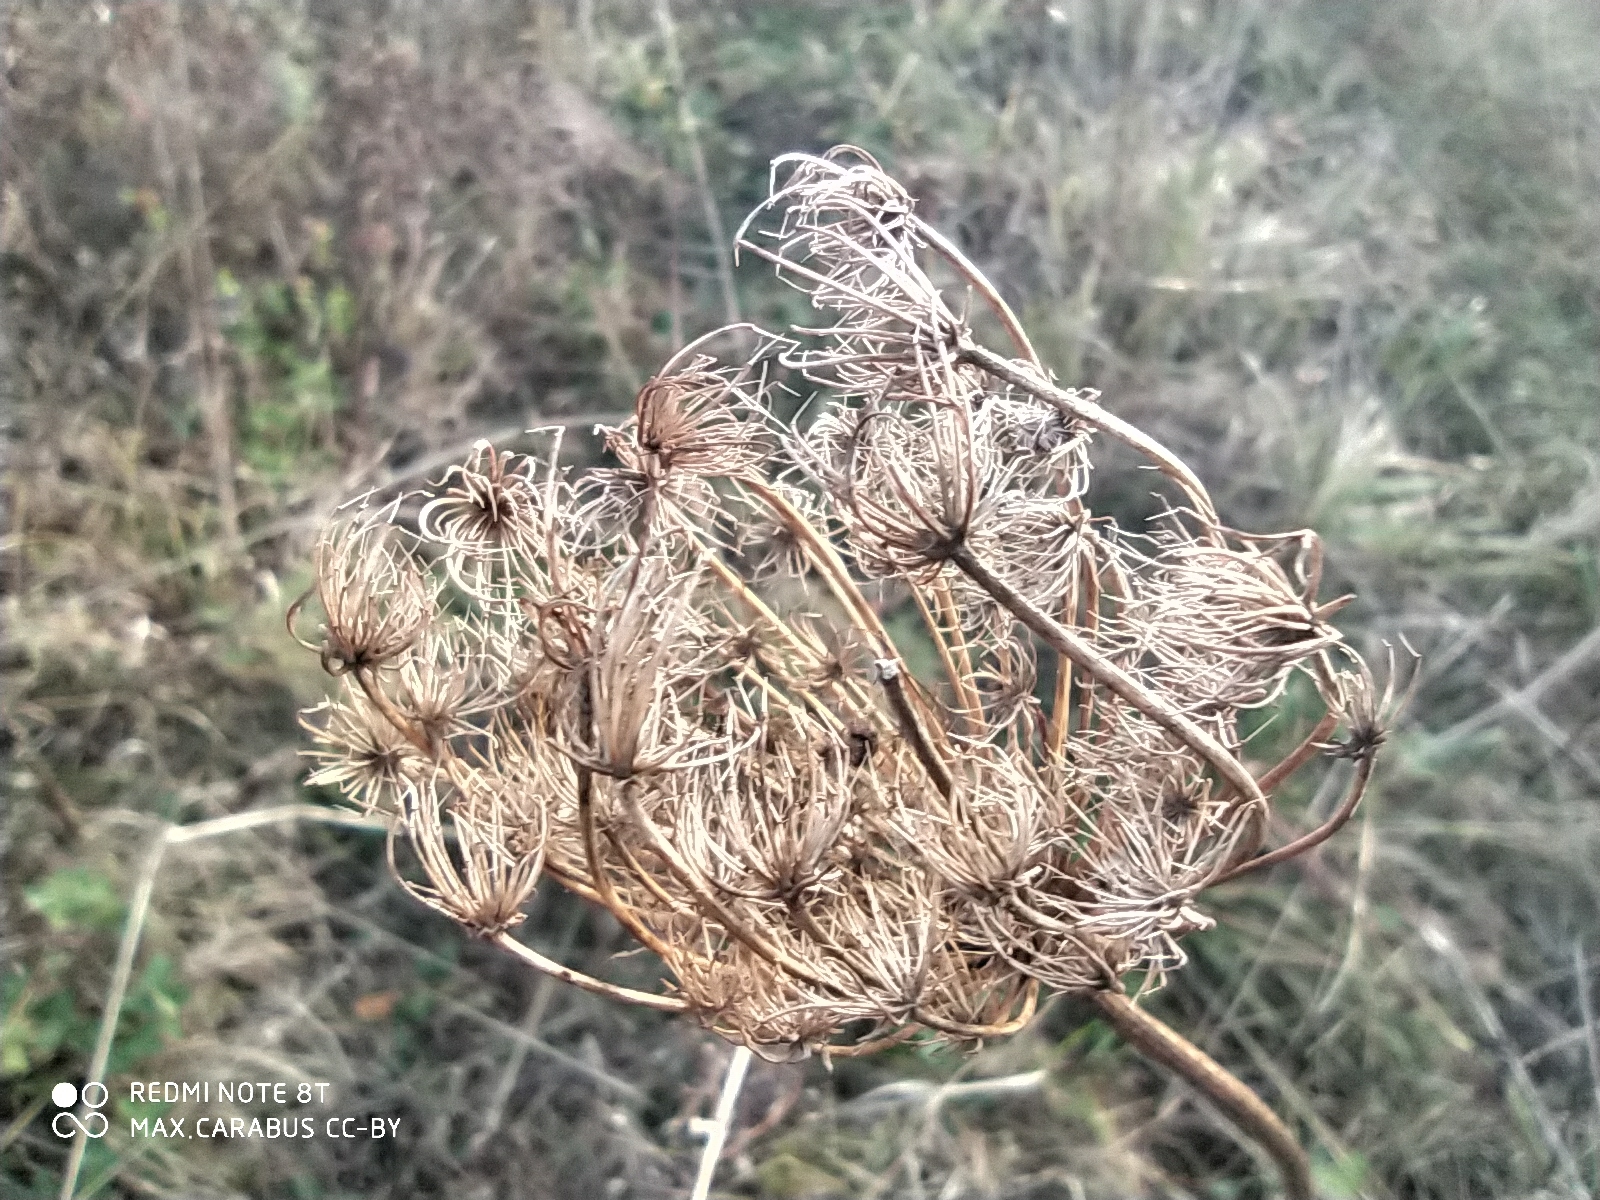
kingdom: Plantae
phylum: Tracheophyta
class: Magnoliopsida
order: Apiales
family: Apiaceae
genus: Daucus
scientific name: Daucus carota
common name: Wild carrot
